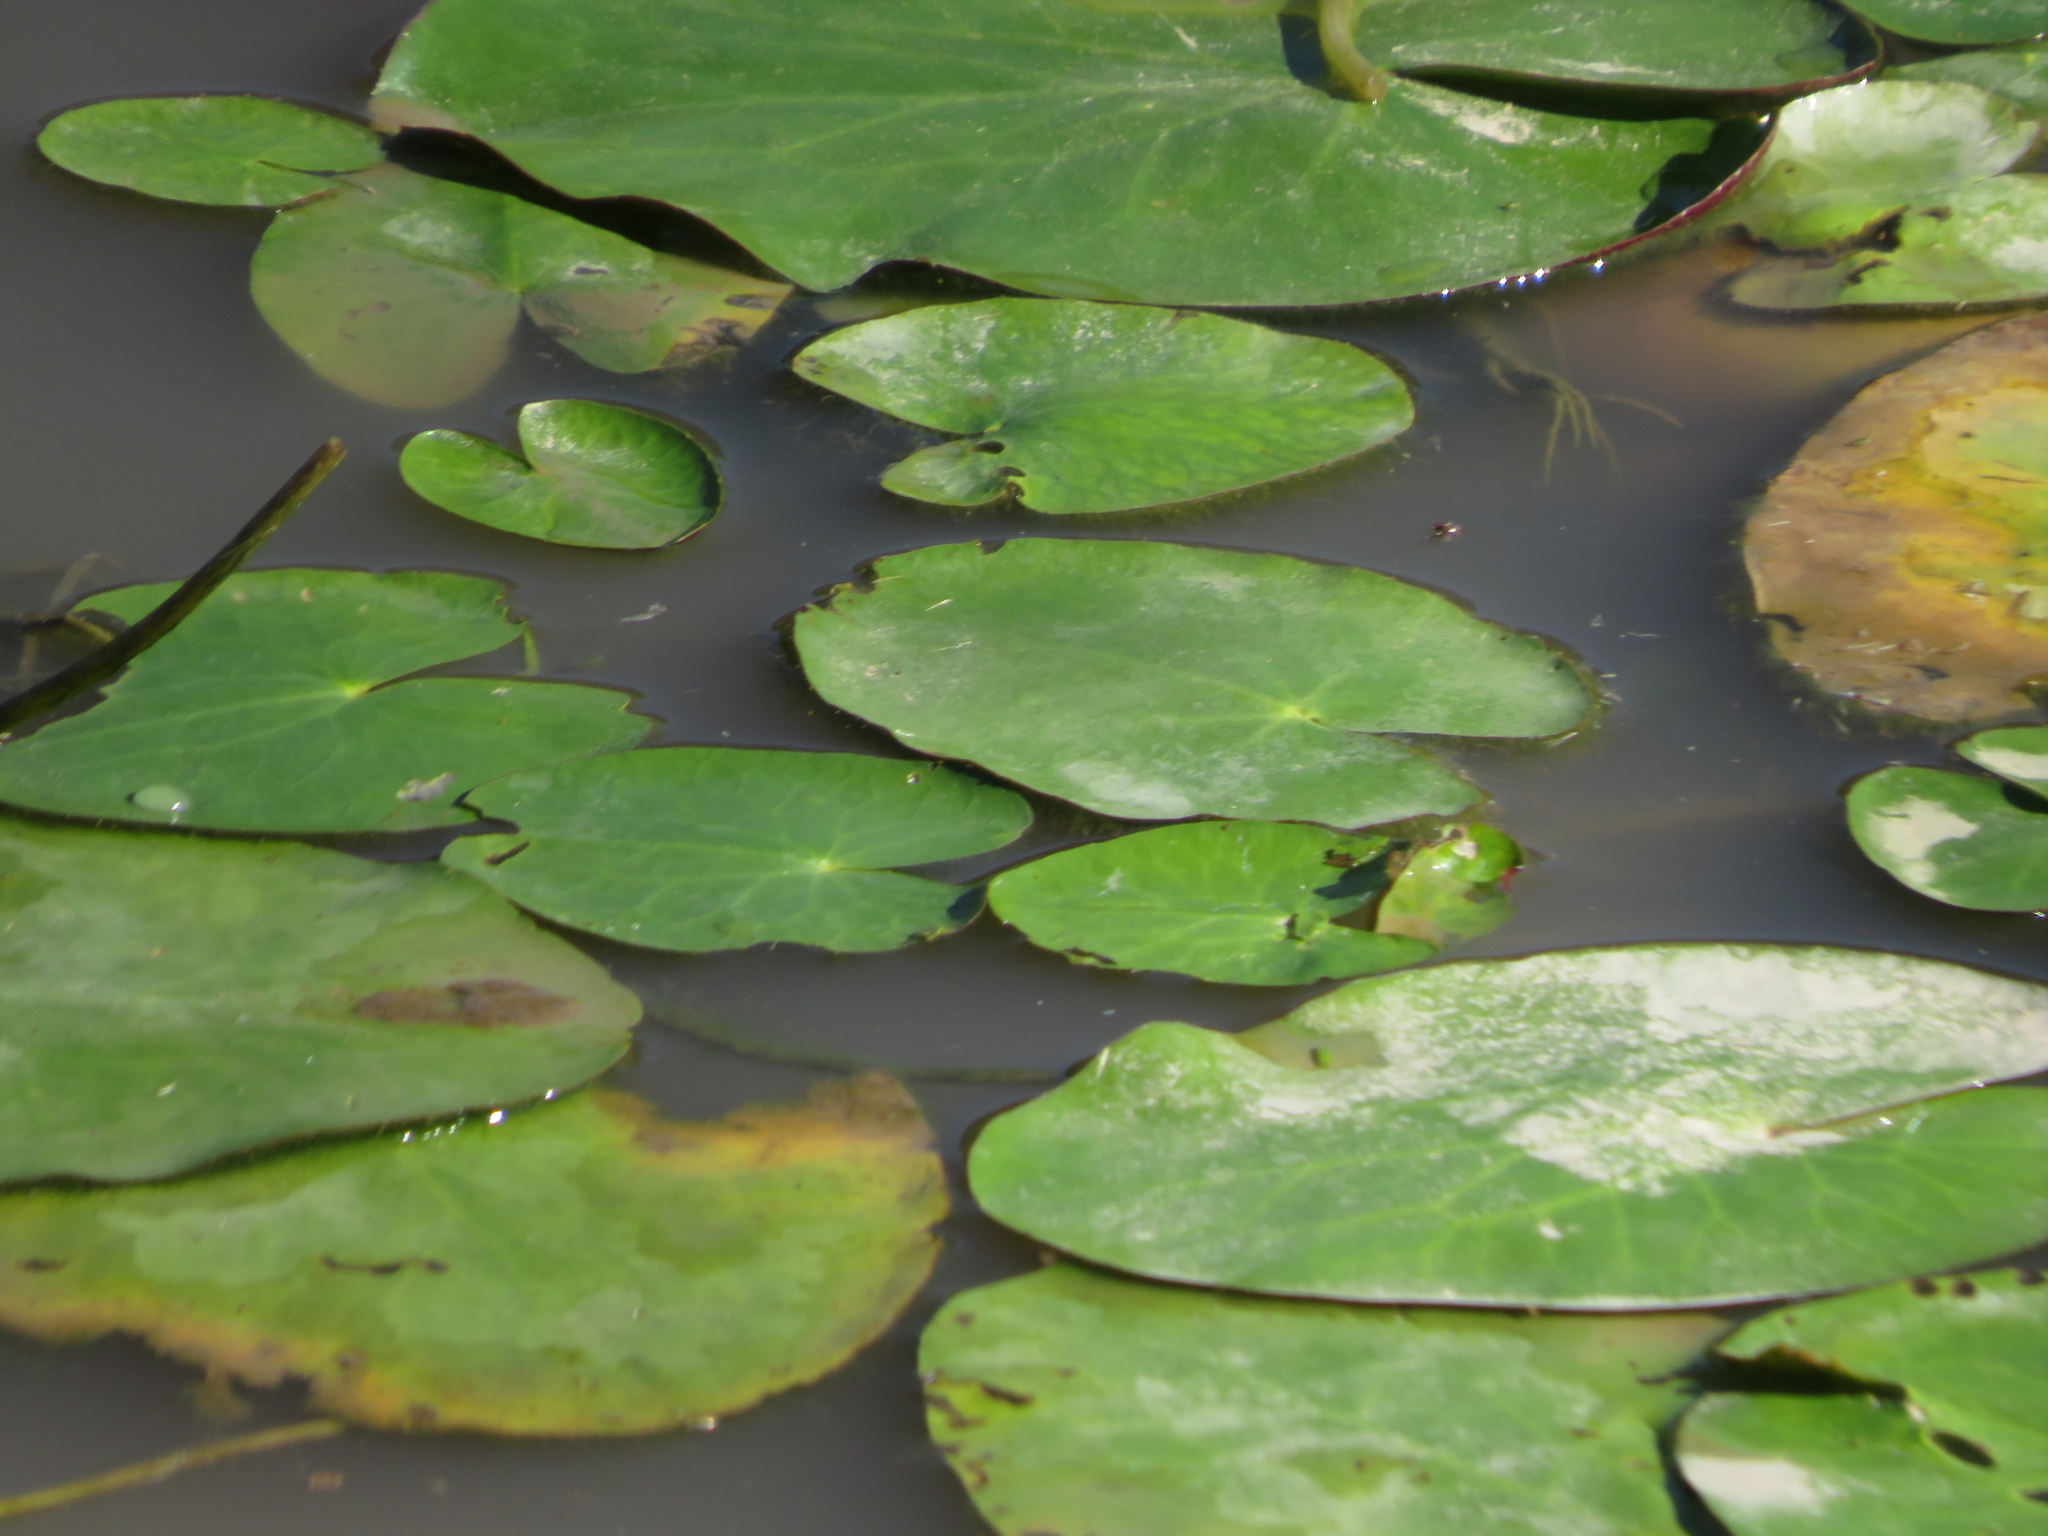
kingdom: Plantae
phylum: Tracheophyta
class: Magnoliopsida
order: Asterales
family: Menyanthaceae
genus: Nymphoides
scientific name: Nymphoides humboldtiana
